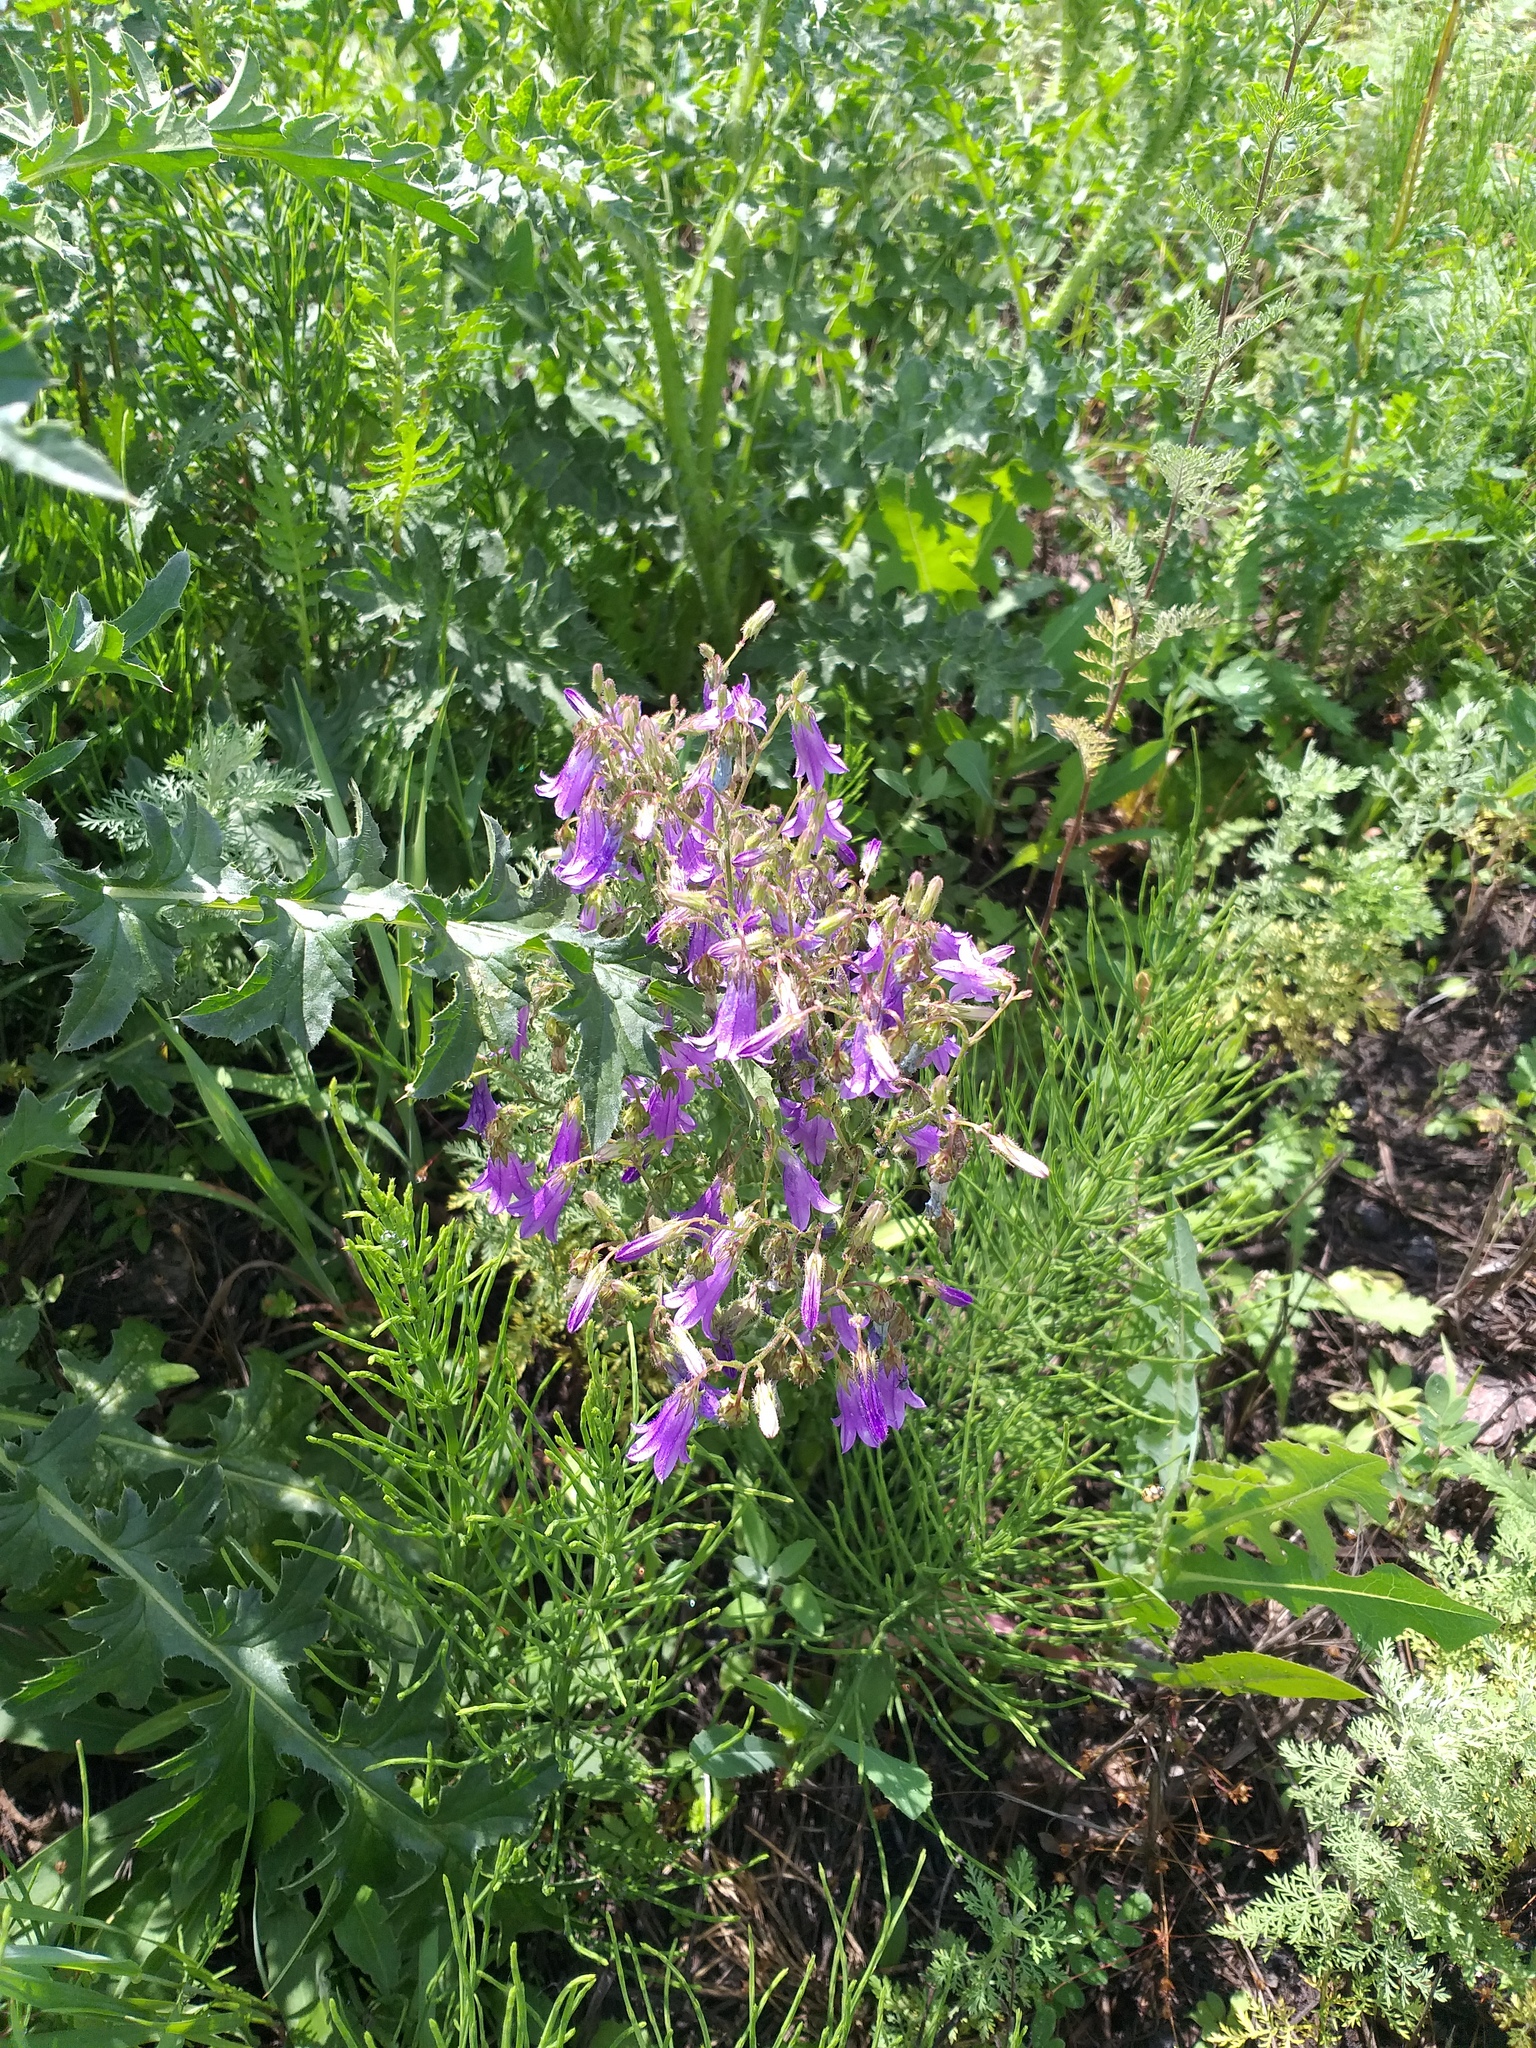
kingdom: Plantae
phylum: Tracheophyta
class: Magnoliopsida
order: Asterales
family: Campanulaceae
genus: Campanula
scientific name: Campanula sibirica
